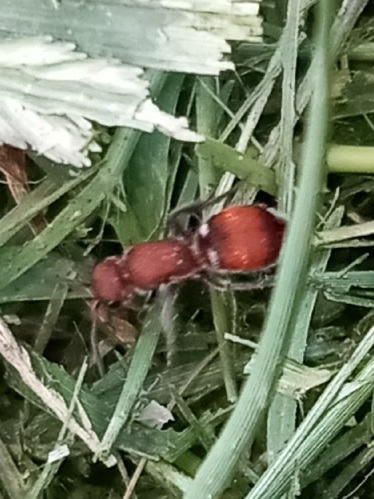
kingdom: Animalia
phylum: Arthropoda
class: Insecta
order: Hymenoptera
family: Mutillidae
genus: Pseudomethoca
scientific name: Pseudomethoca sanbornii
